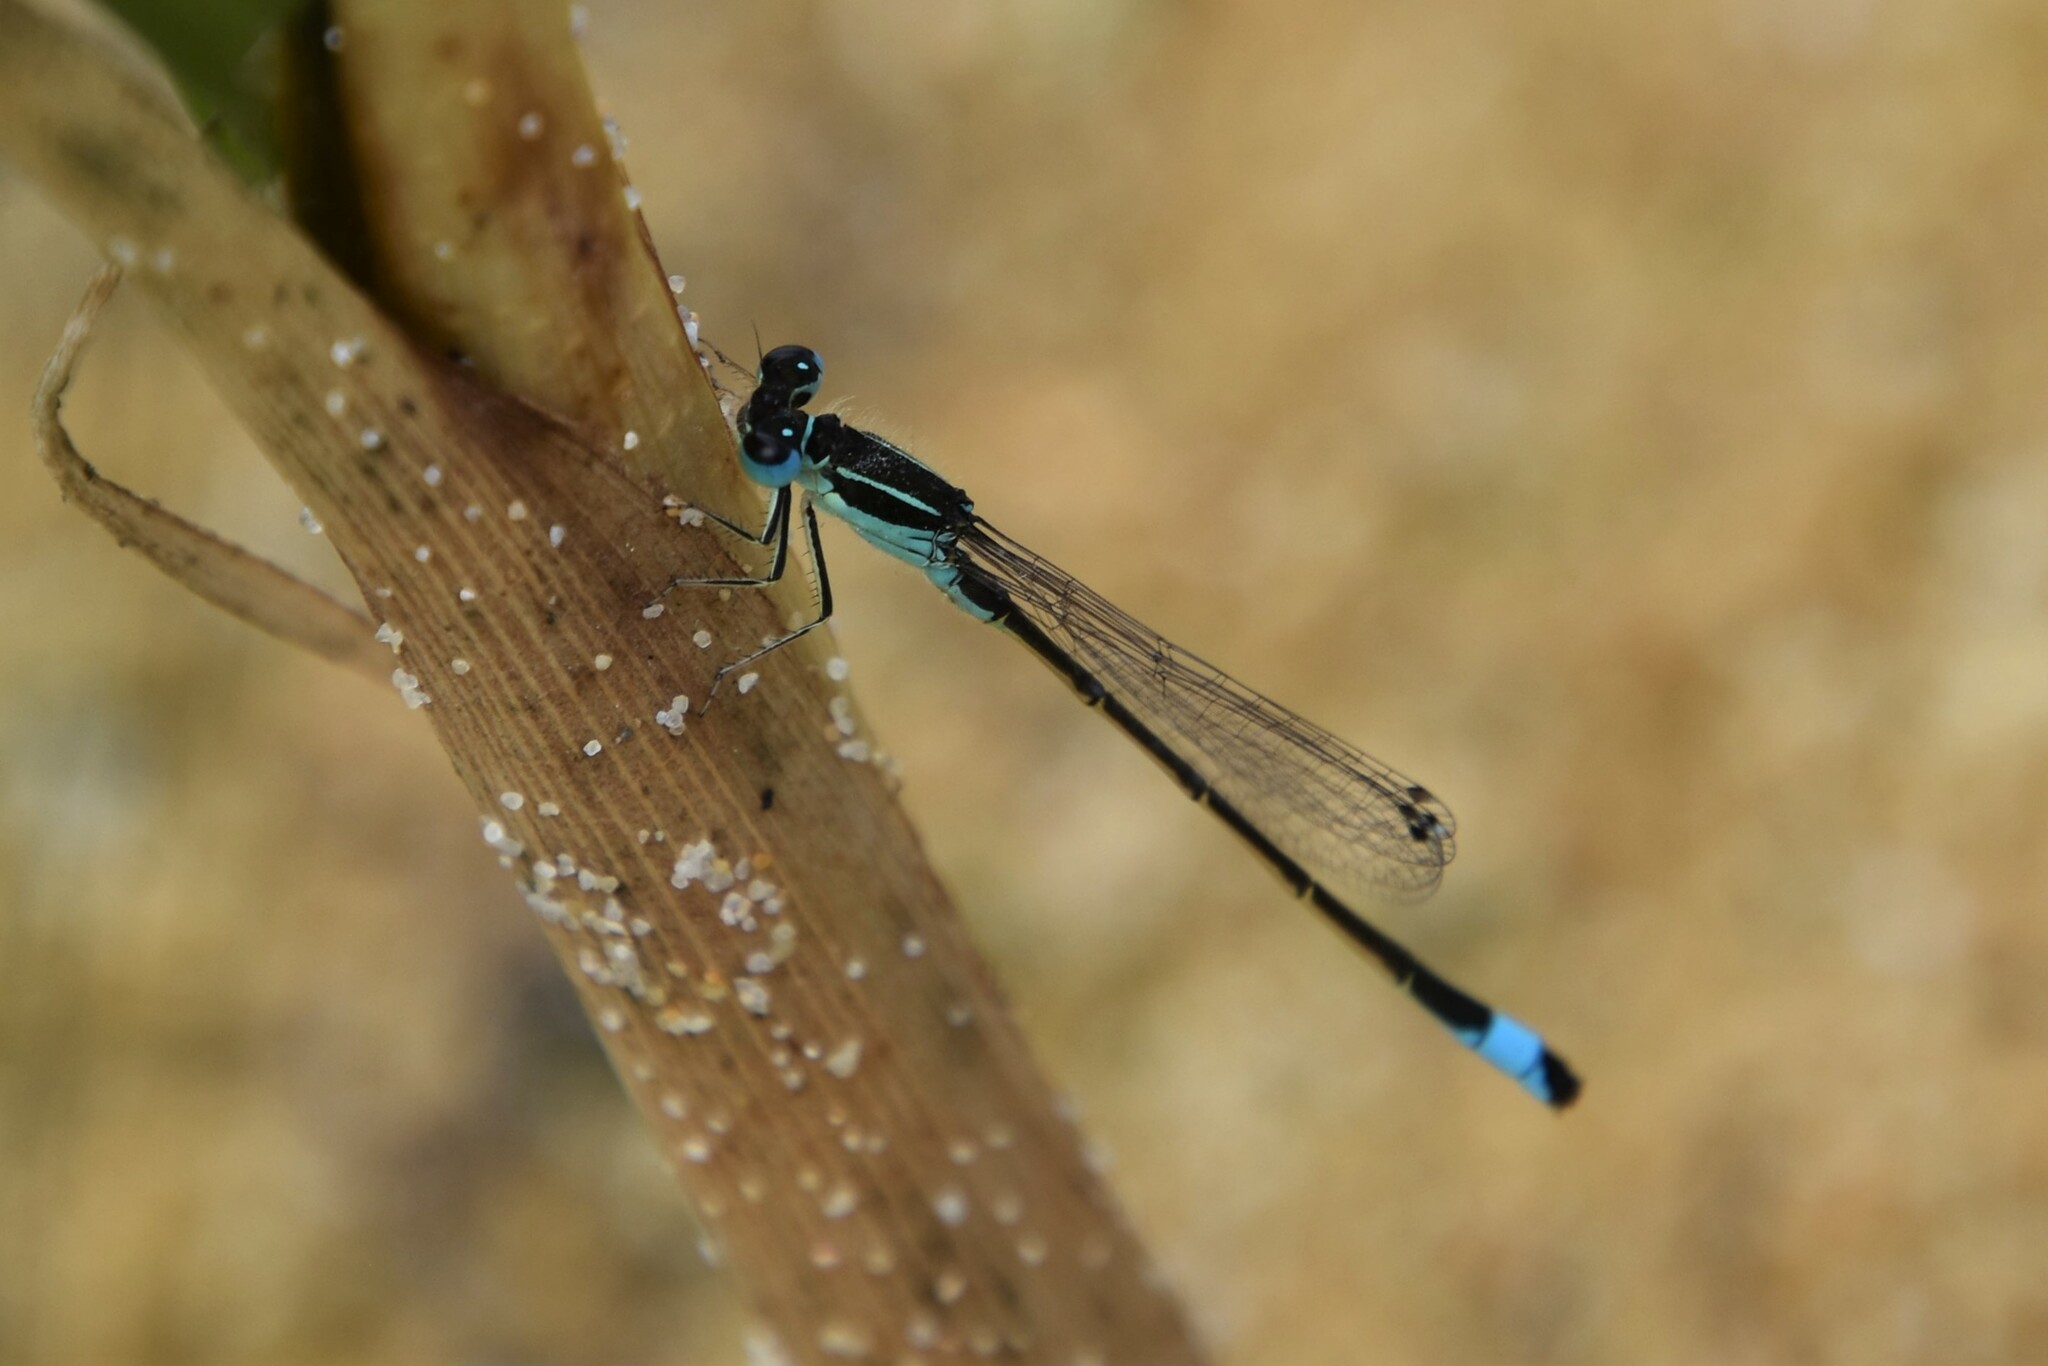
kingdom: Animalia
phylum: Arthropoda
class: Insecta
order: Odonata
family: Coenagrionidae
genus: Ischnura
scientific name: Ischnura graellsii
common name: Iberian bluetail
